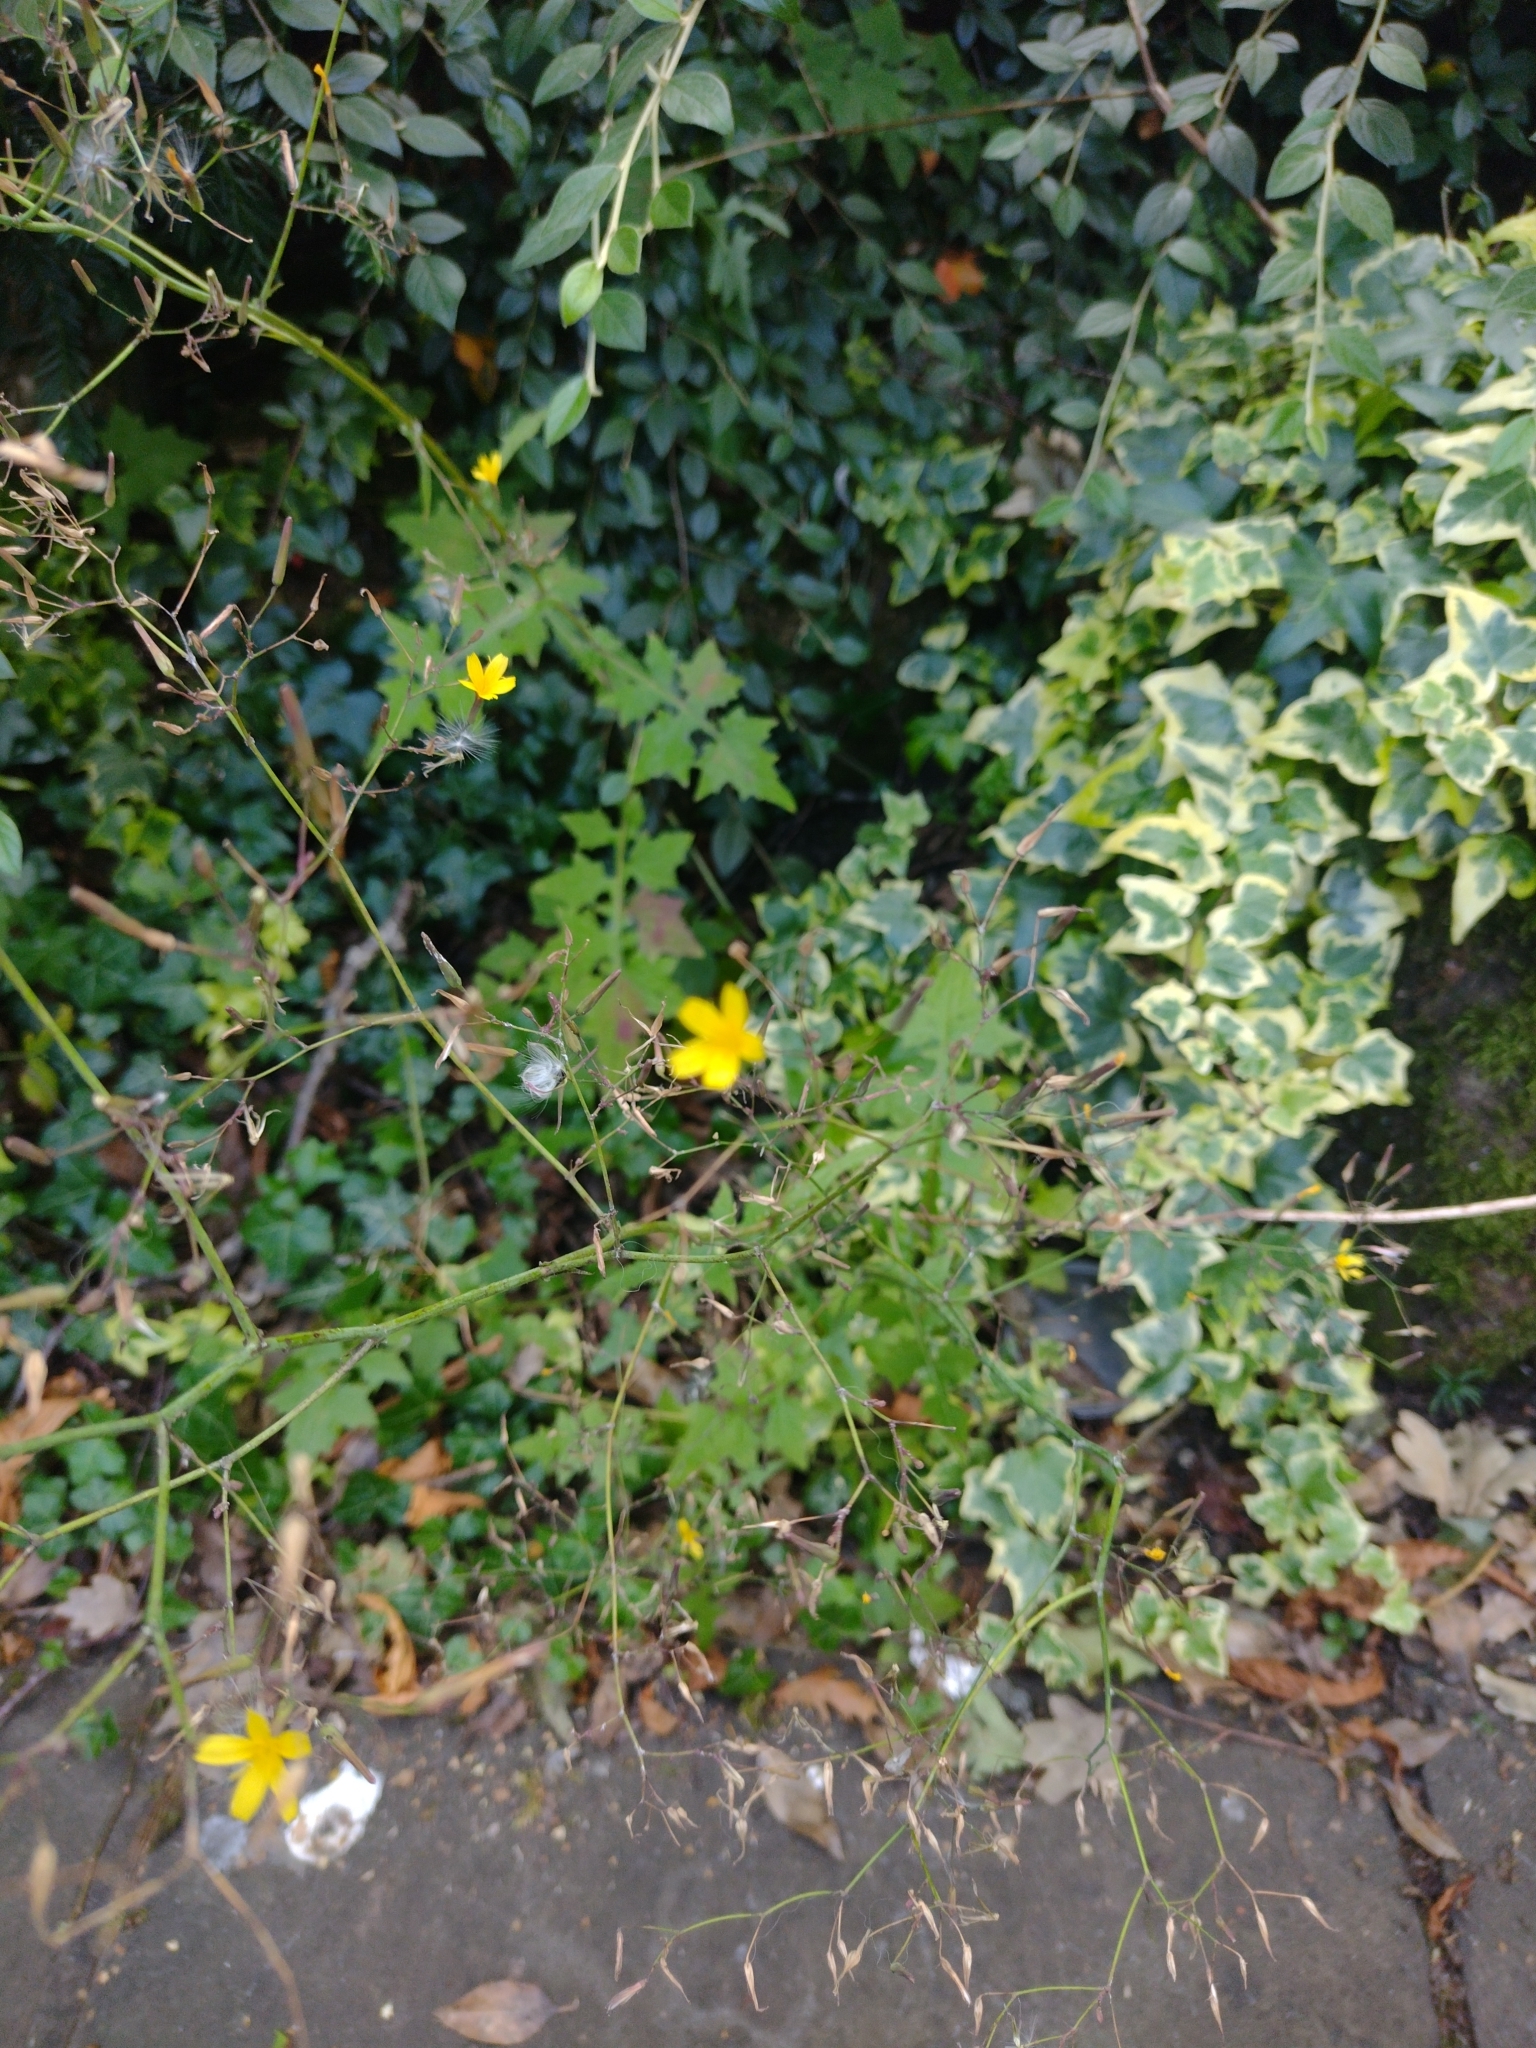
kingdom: Plantae
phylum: Tracheophyta
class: Magnoliopsida
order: Asterales
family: Asteraceae
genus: Mycelis
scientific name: Mycelis muralis
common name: Wall lettuce
